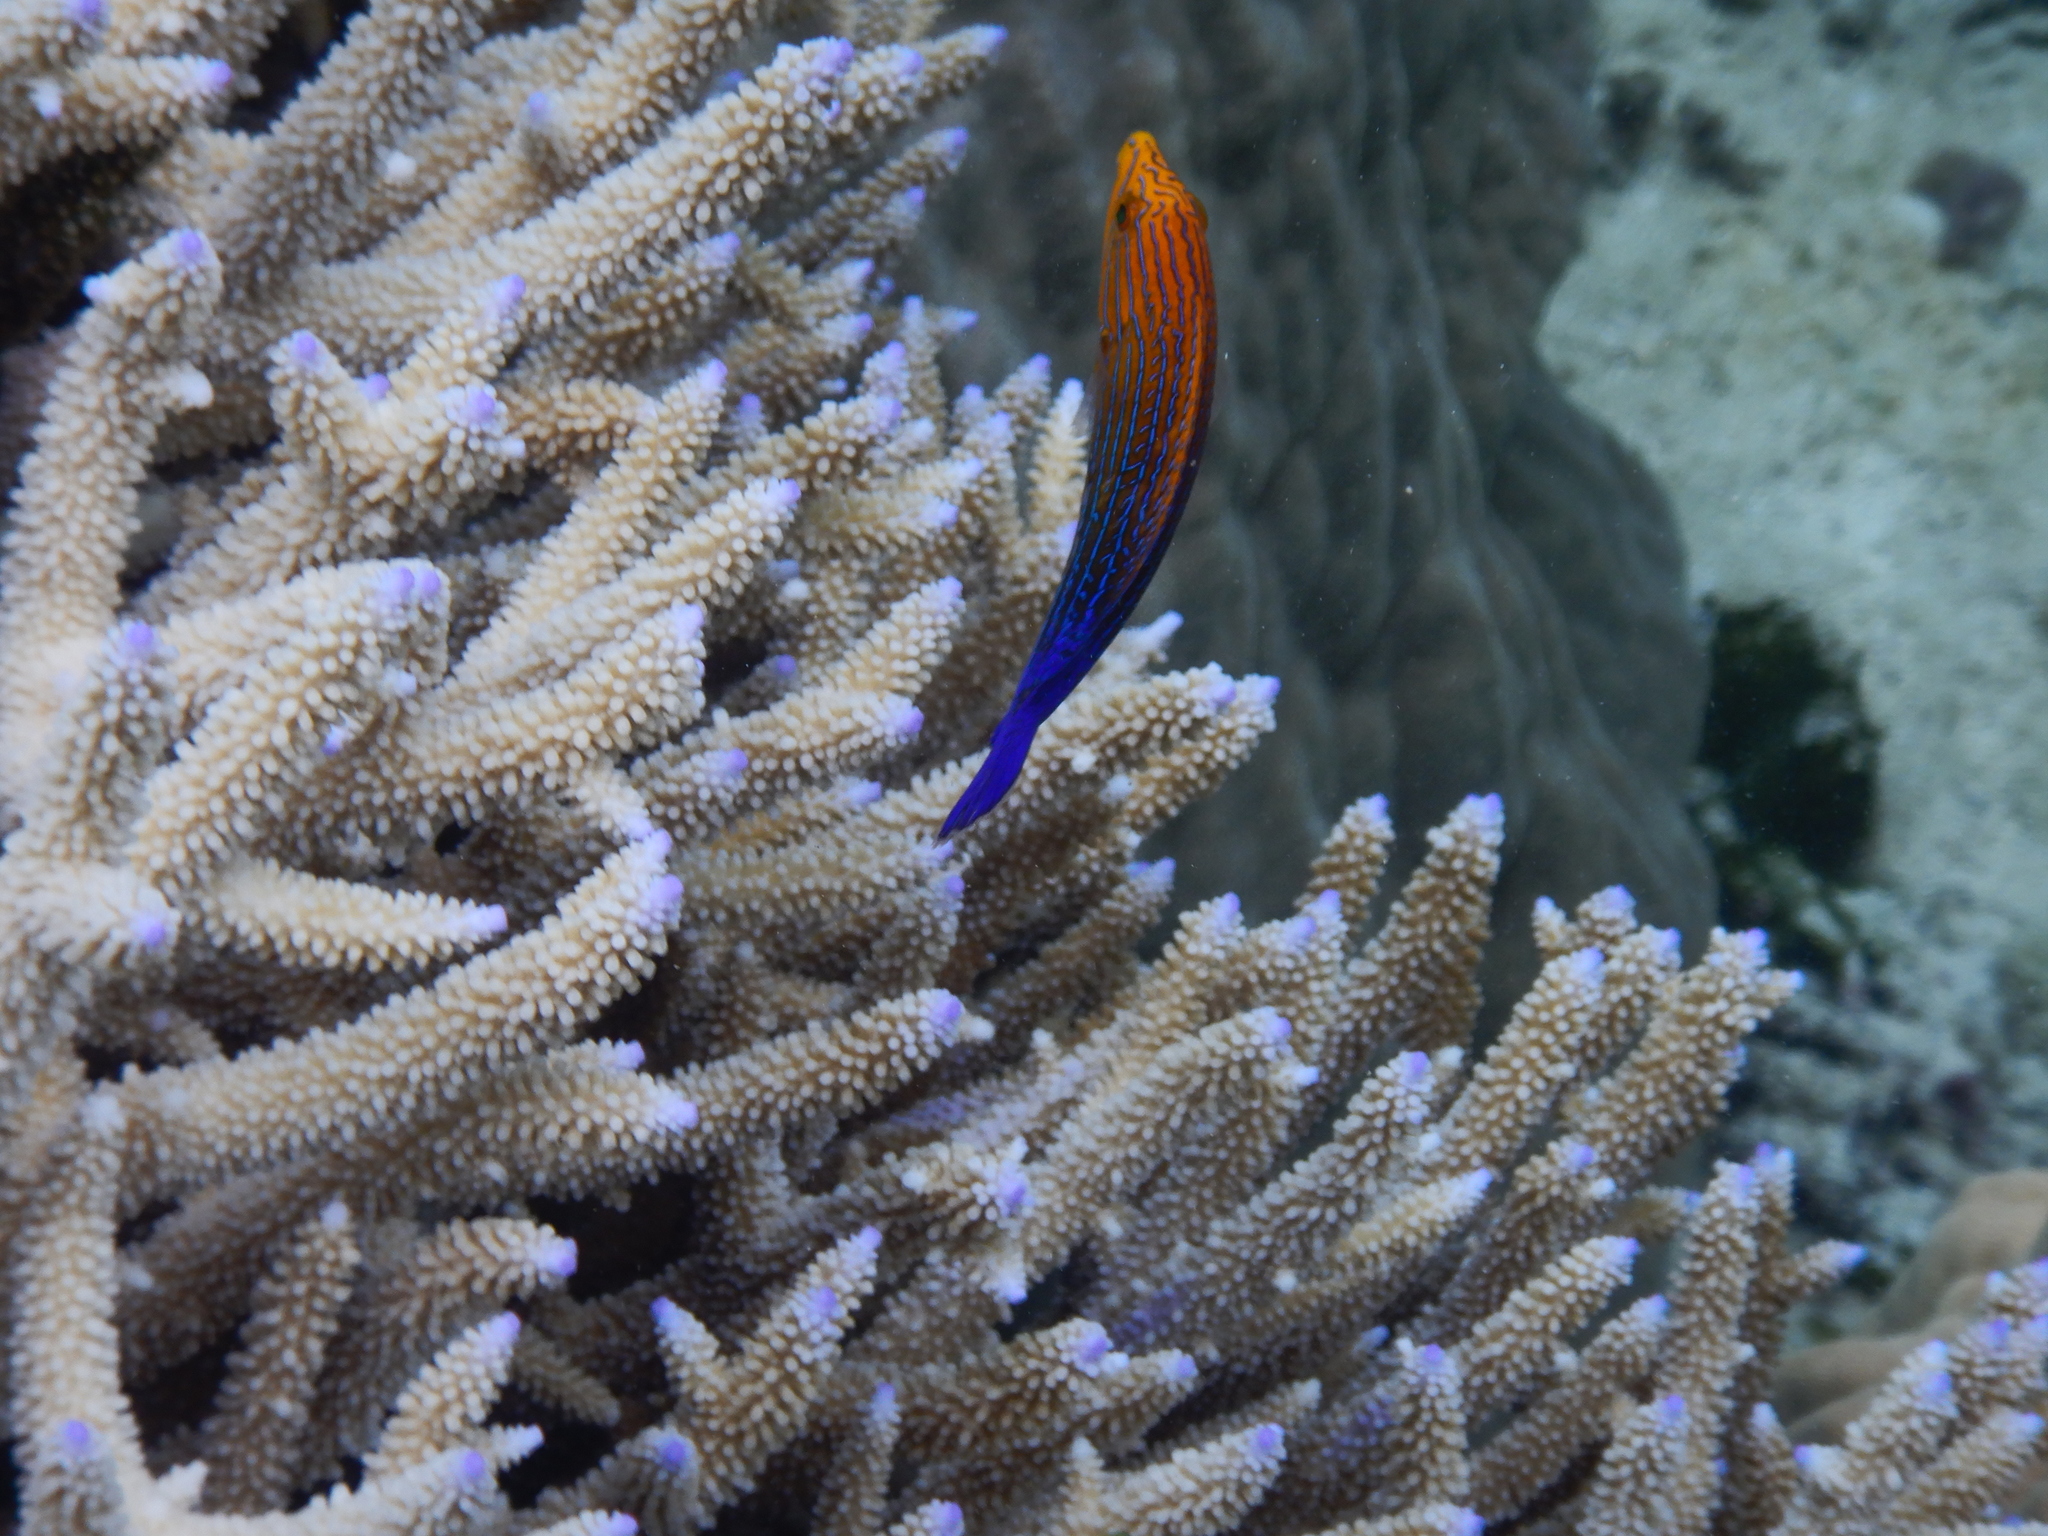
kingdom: Animalia
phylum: Chordata
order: Perciformes
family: Labridae
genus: Anampses
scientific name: Anampses femininus
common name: Feminine wrasse
